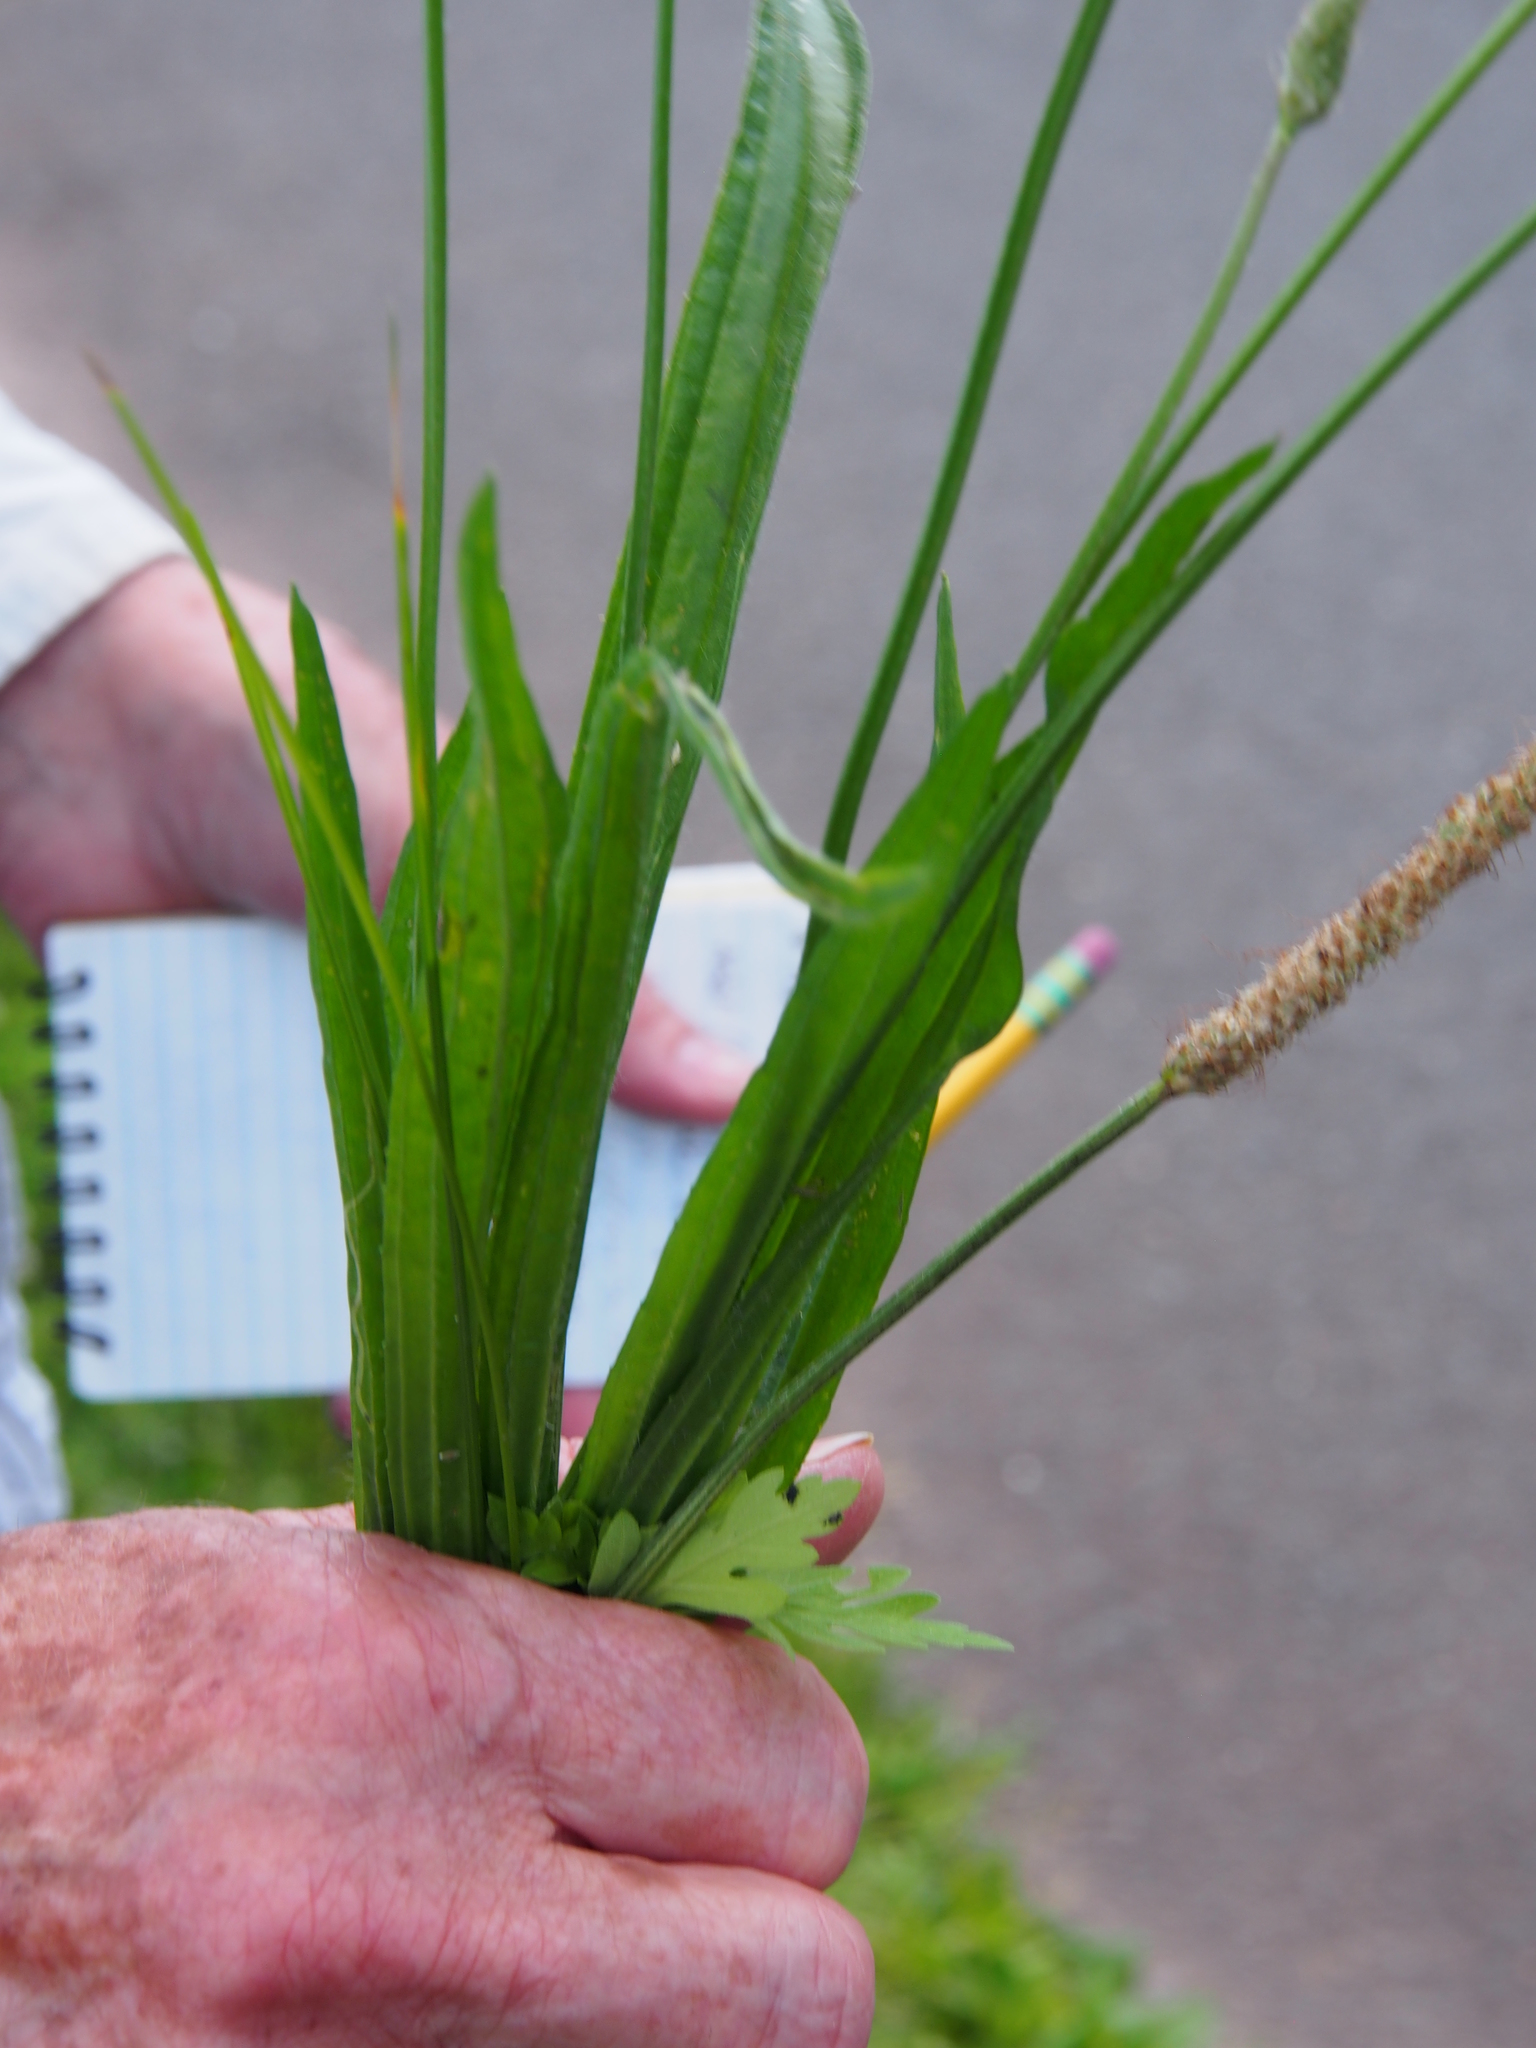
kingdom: Plantae
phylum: Tracheophyta
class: Magnoliopsida
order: Lamiales
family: Plantaginaceae
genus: Plantago
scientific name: Plantago lanceolata
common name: Ribwort plantain
